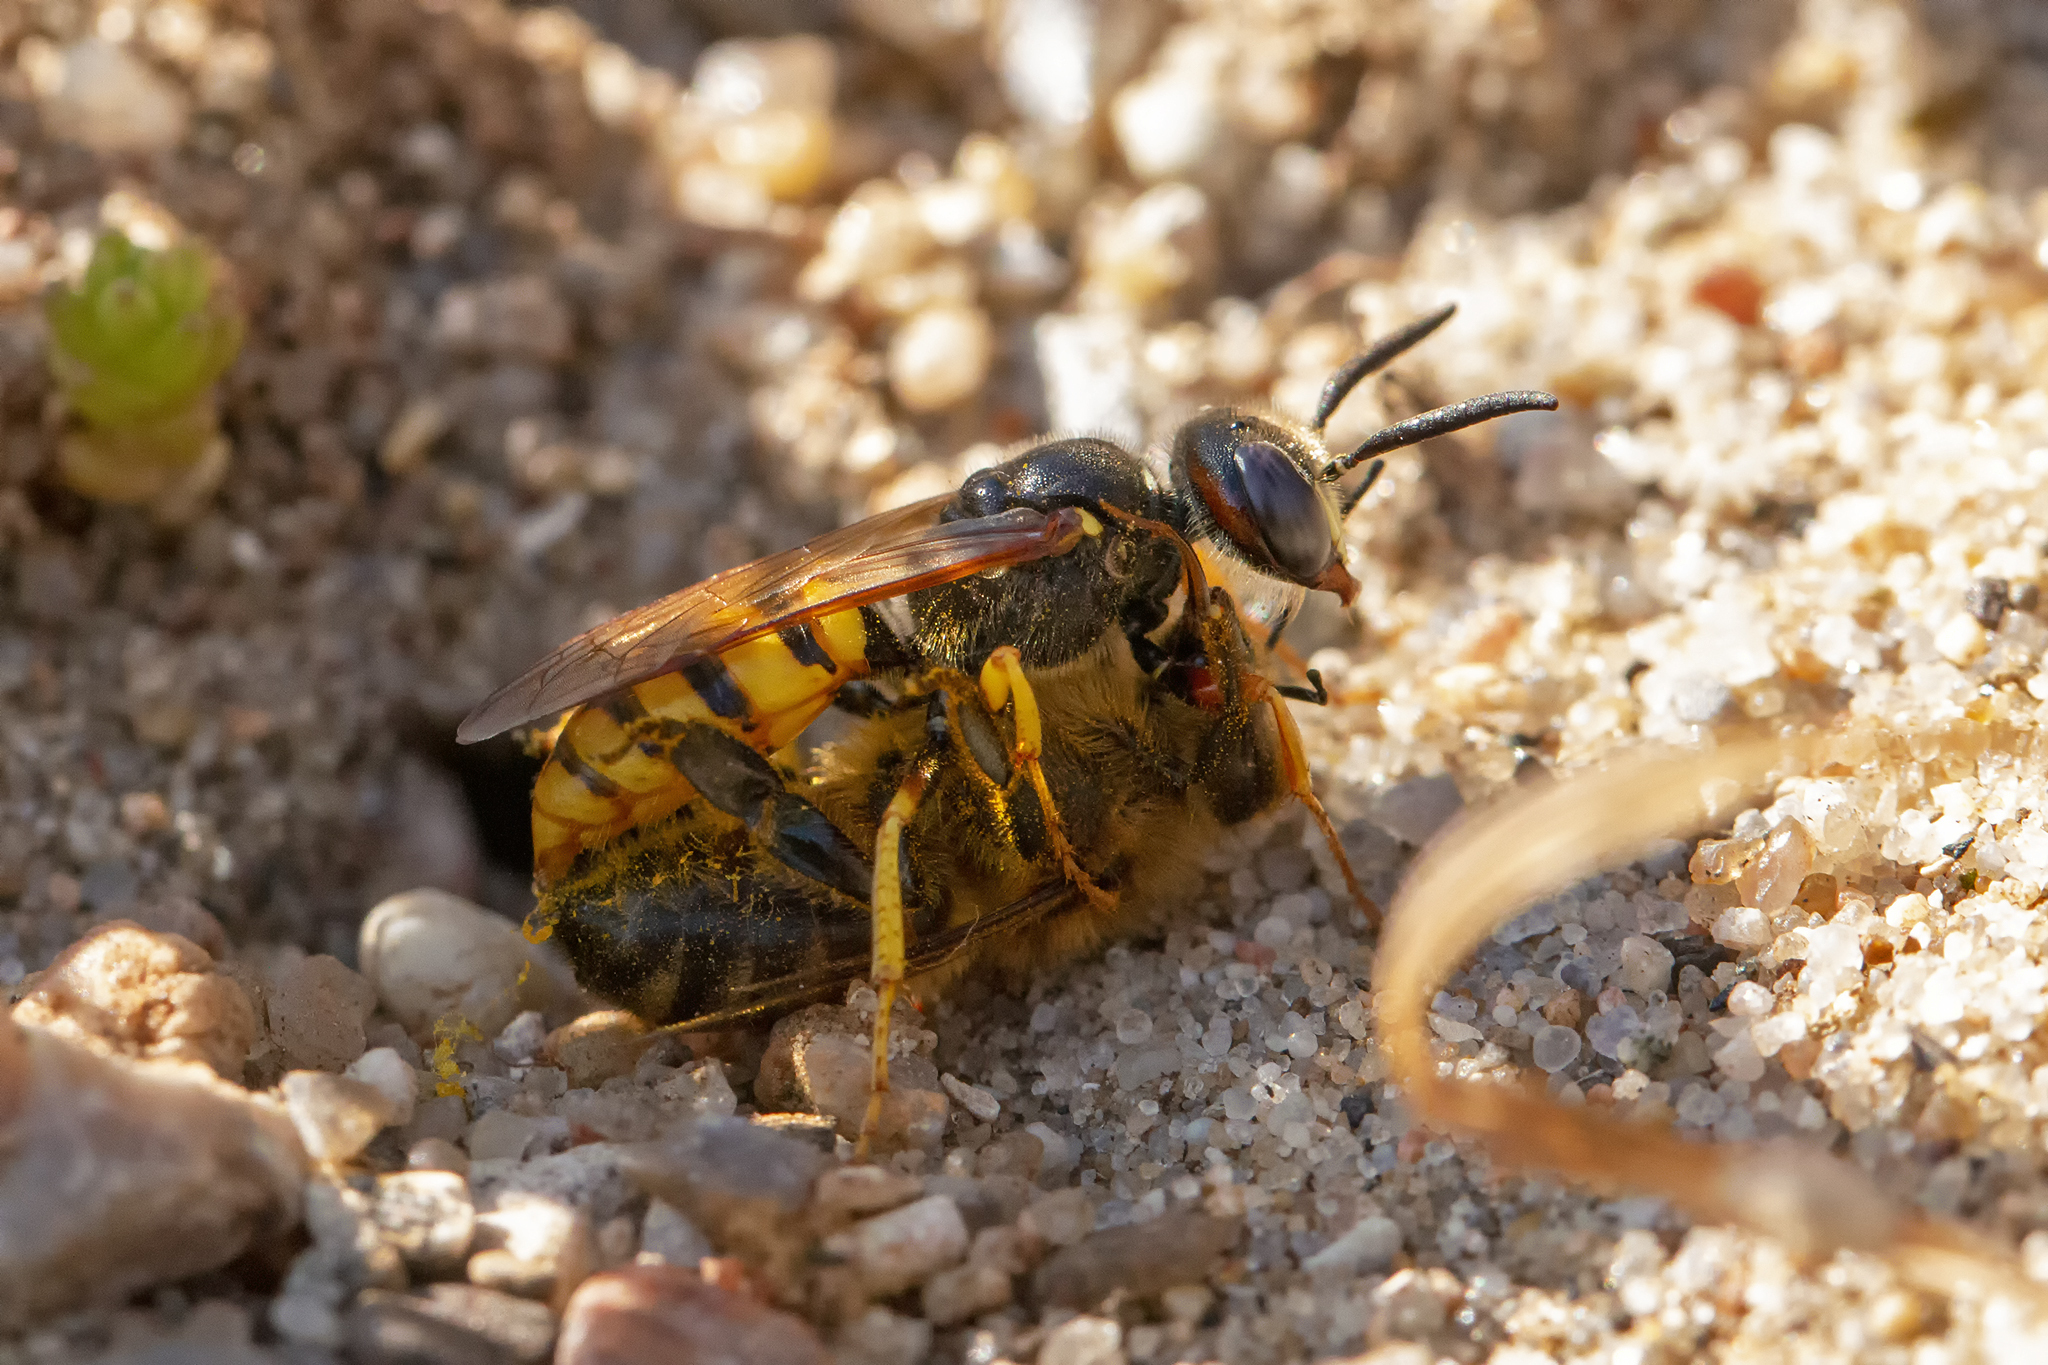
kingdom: Animalia
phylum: Arthropoda
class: Insecta
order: Hymenoptera
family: Crabronidae
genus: Philanthus
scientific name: Philanthus triangulum
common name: Bee wolf
